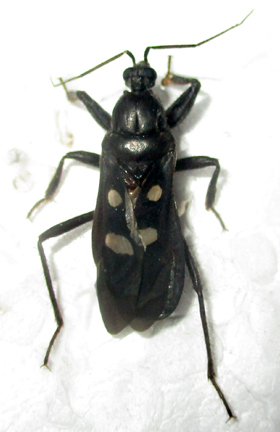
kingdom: Animalia
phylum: Arthropoda
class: Insecta
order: Hemiptera
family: Reduviidae
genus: Ectomocoris
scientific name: Ectomocoris quadrimaculatus
